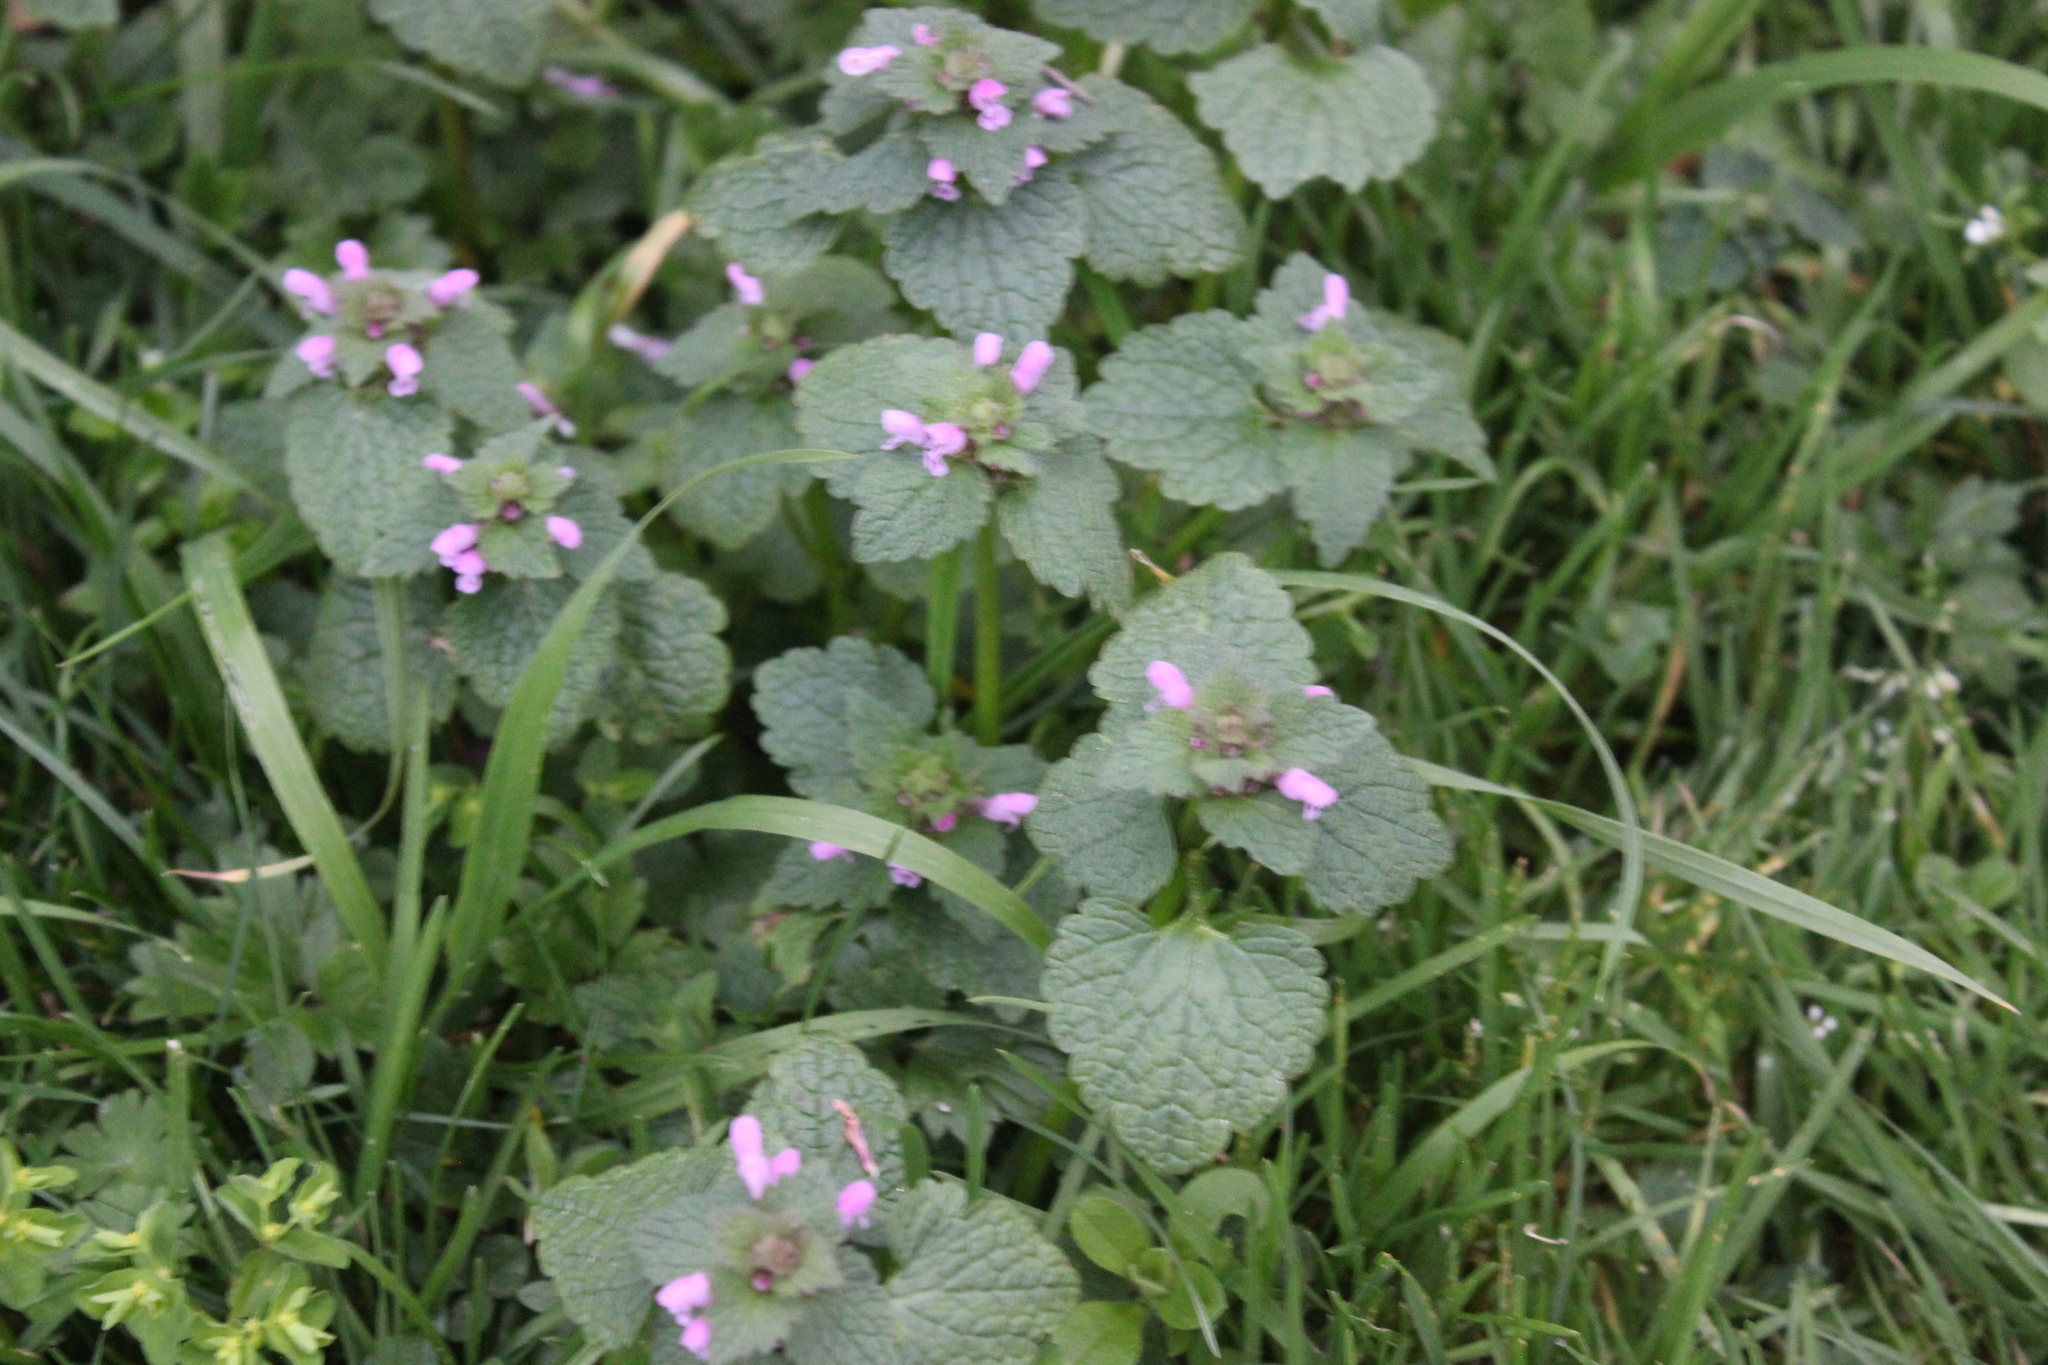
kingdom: Plantae
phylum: Tracheophyta
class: Magnoliopsida
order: Lamiales
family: Lamiaceae
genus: Lamium
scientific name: Lamium purpureum
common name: Red dead-nettle
